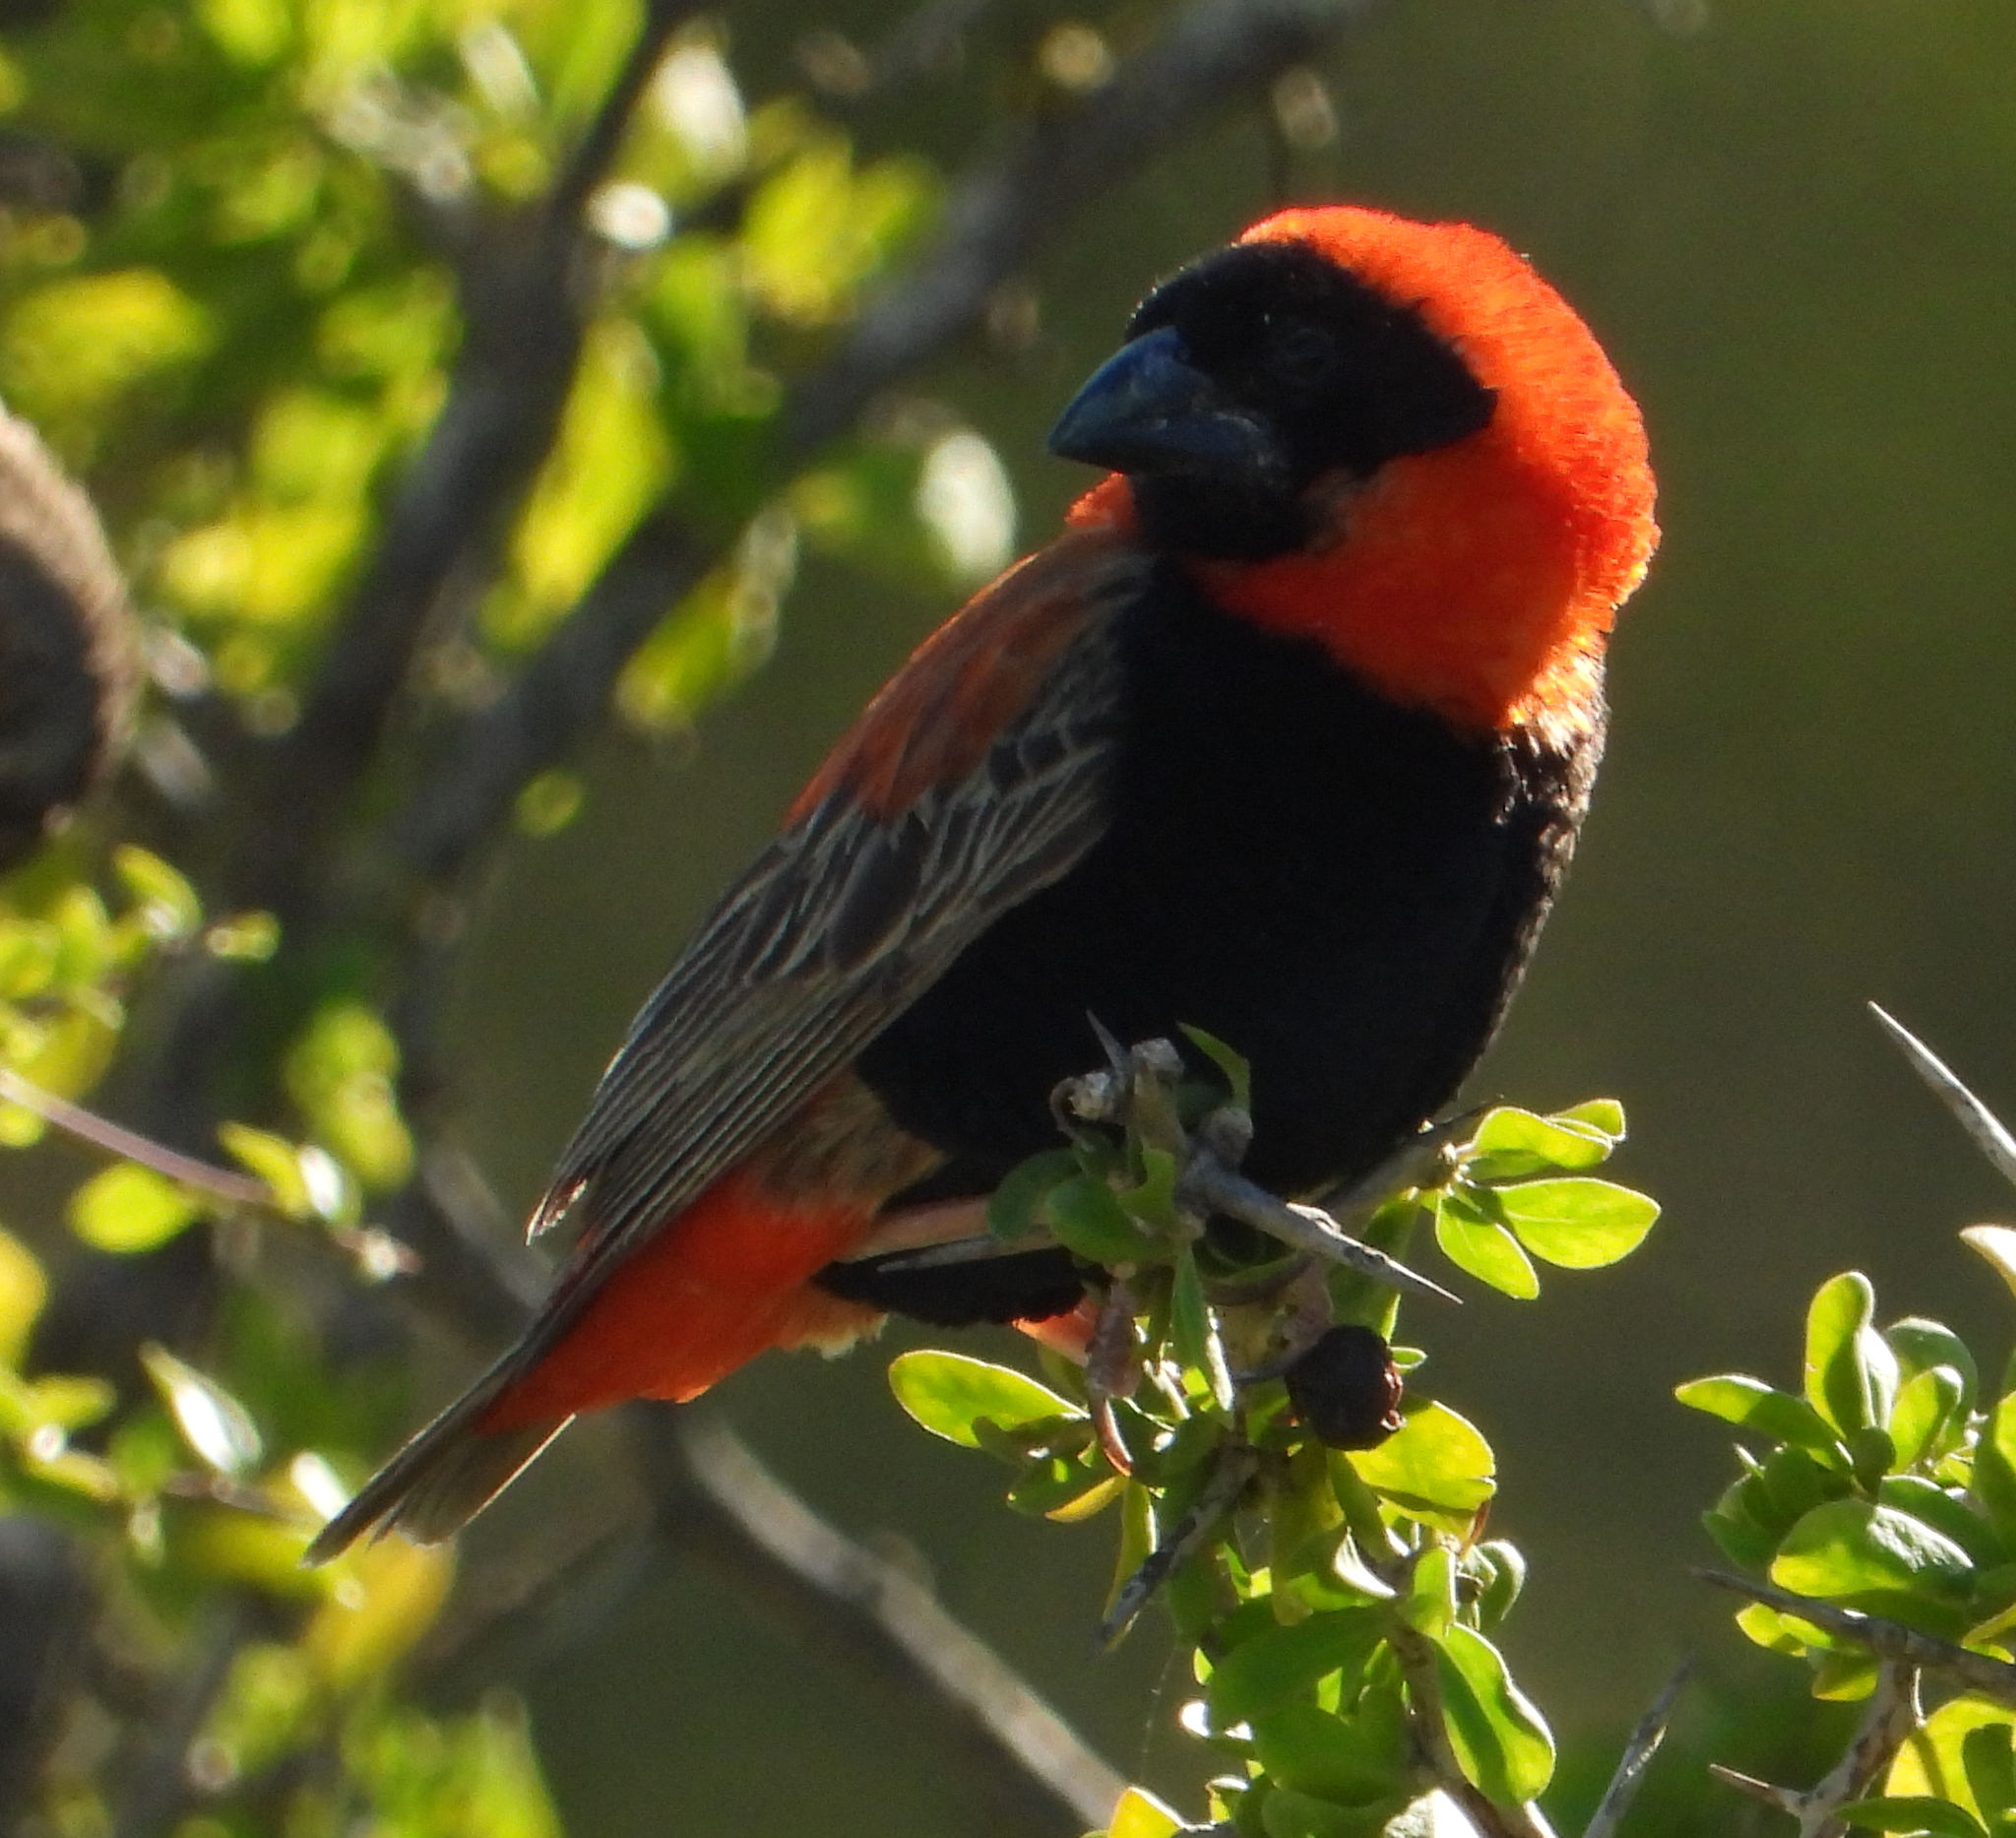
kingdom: Animalia
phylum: Chordata
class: Aves
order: Passeriformes
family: Ploceidae
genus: Euplectes
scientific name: Euplectes orix
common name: Southern red bishop
